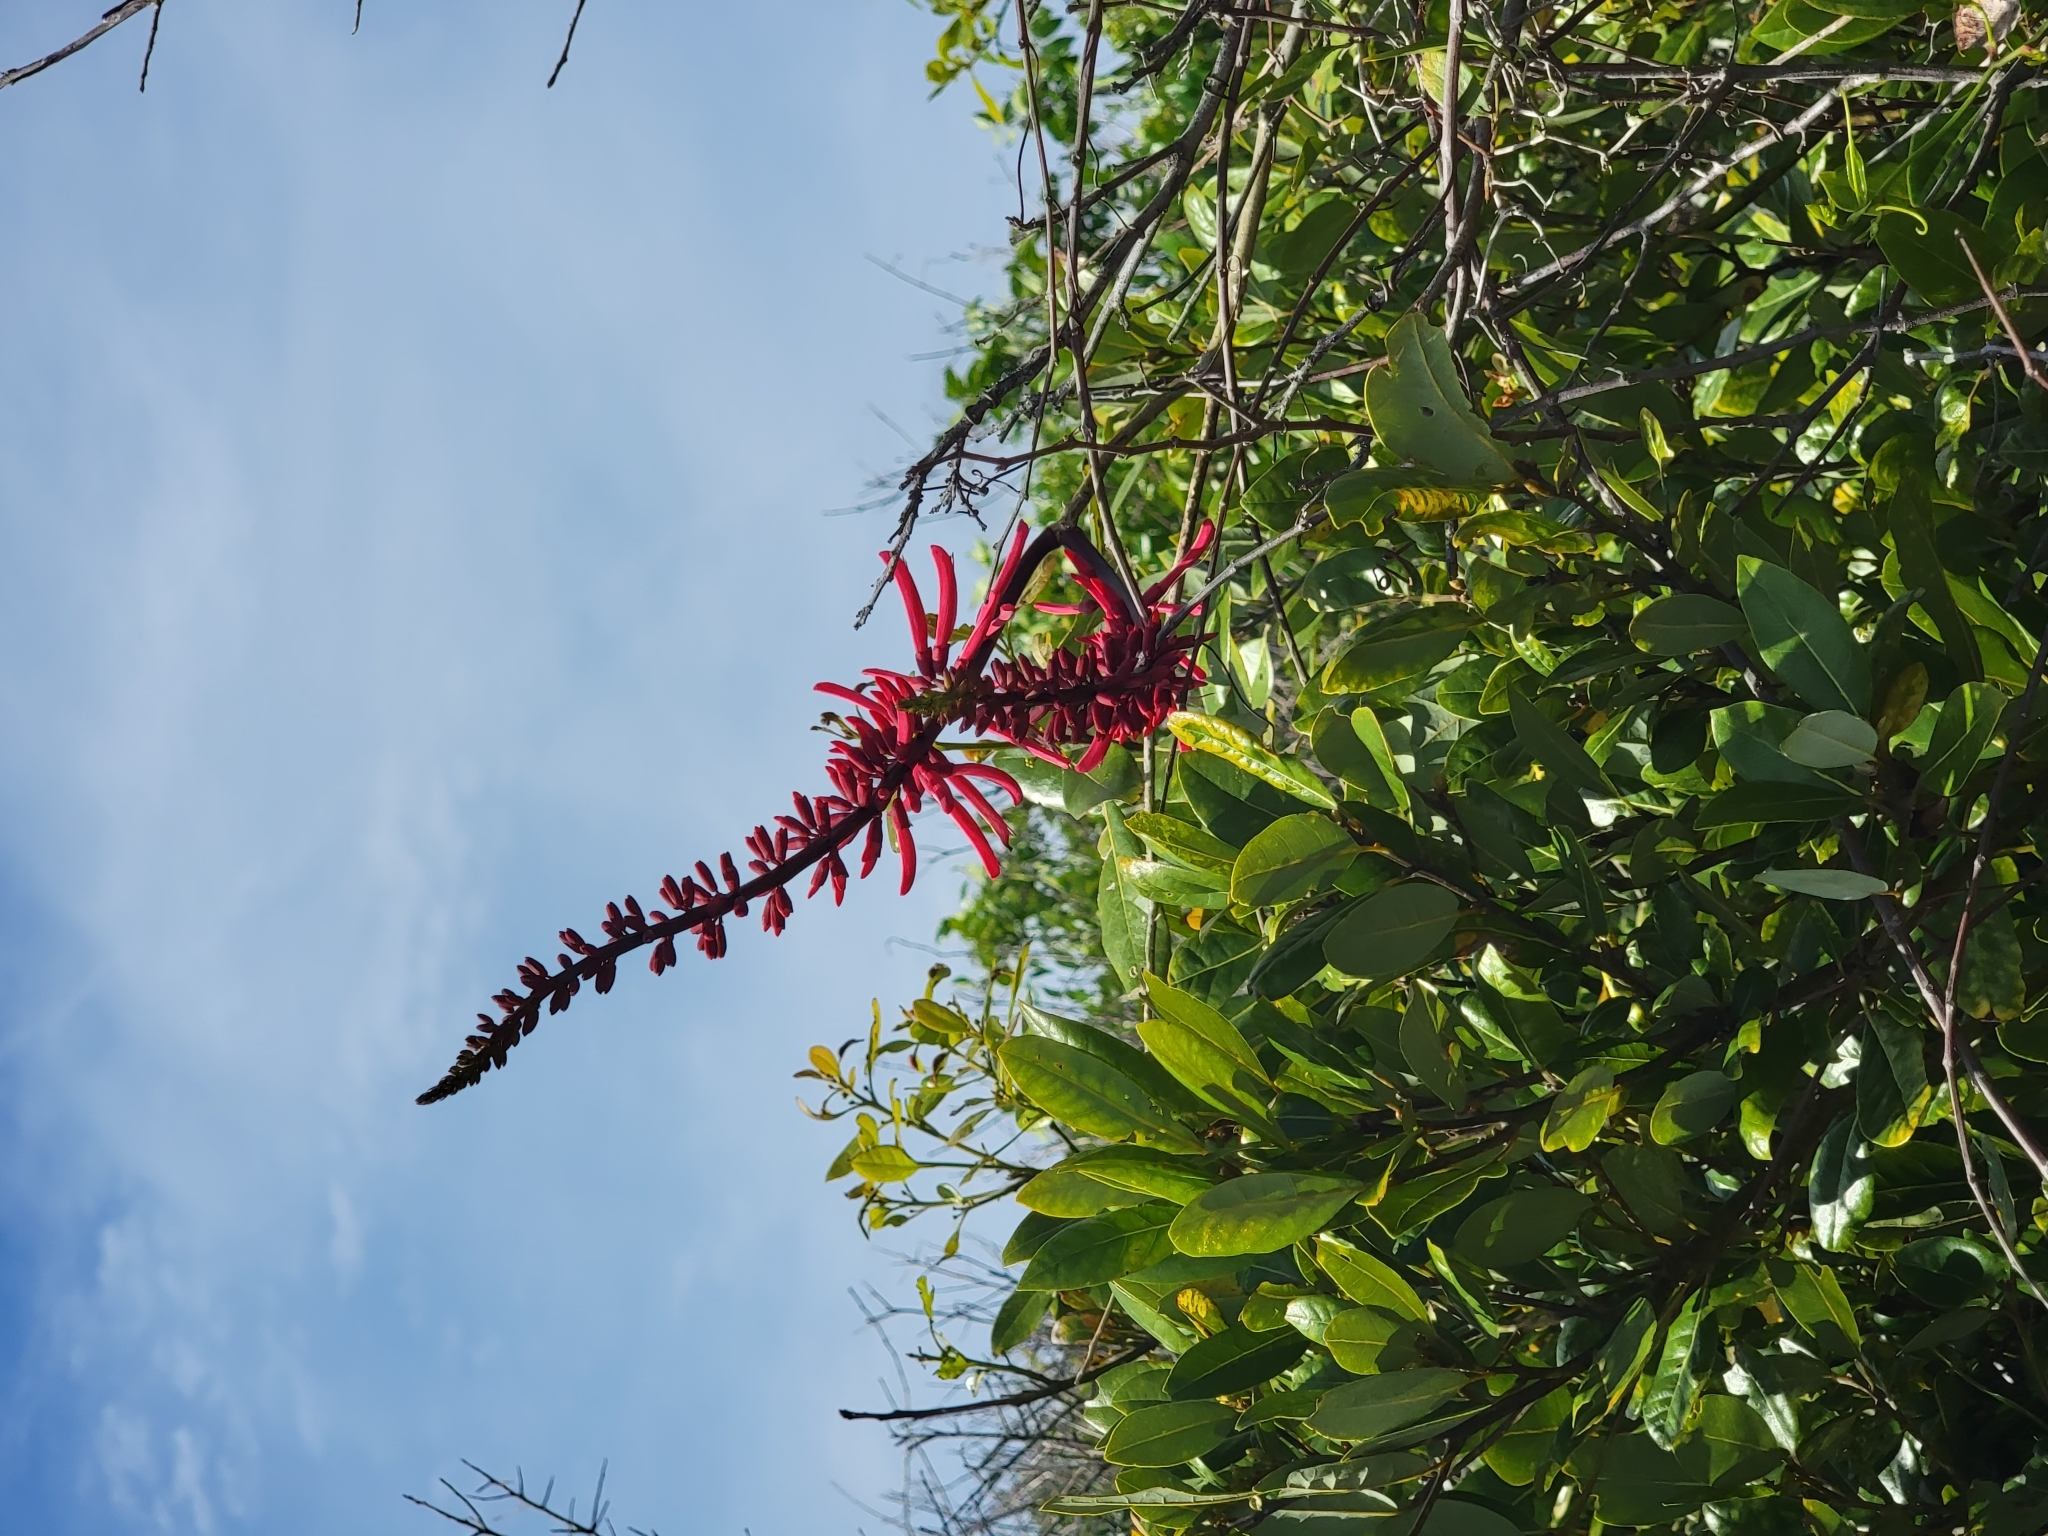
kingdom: Plantae
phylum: Tracheophyta
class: Magnoliopsida
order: Fabales
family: Fabaceae
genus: Erythrina
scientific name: Erythrina herbacea
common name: Coral-bean
